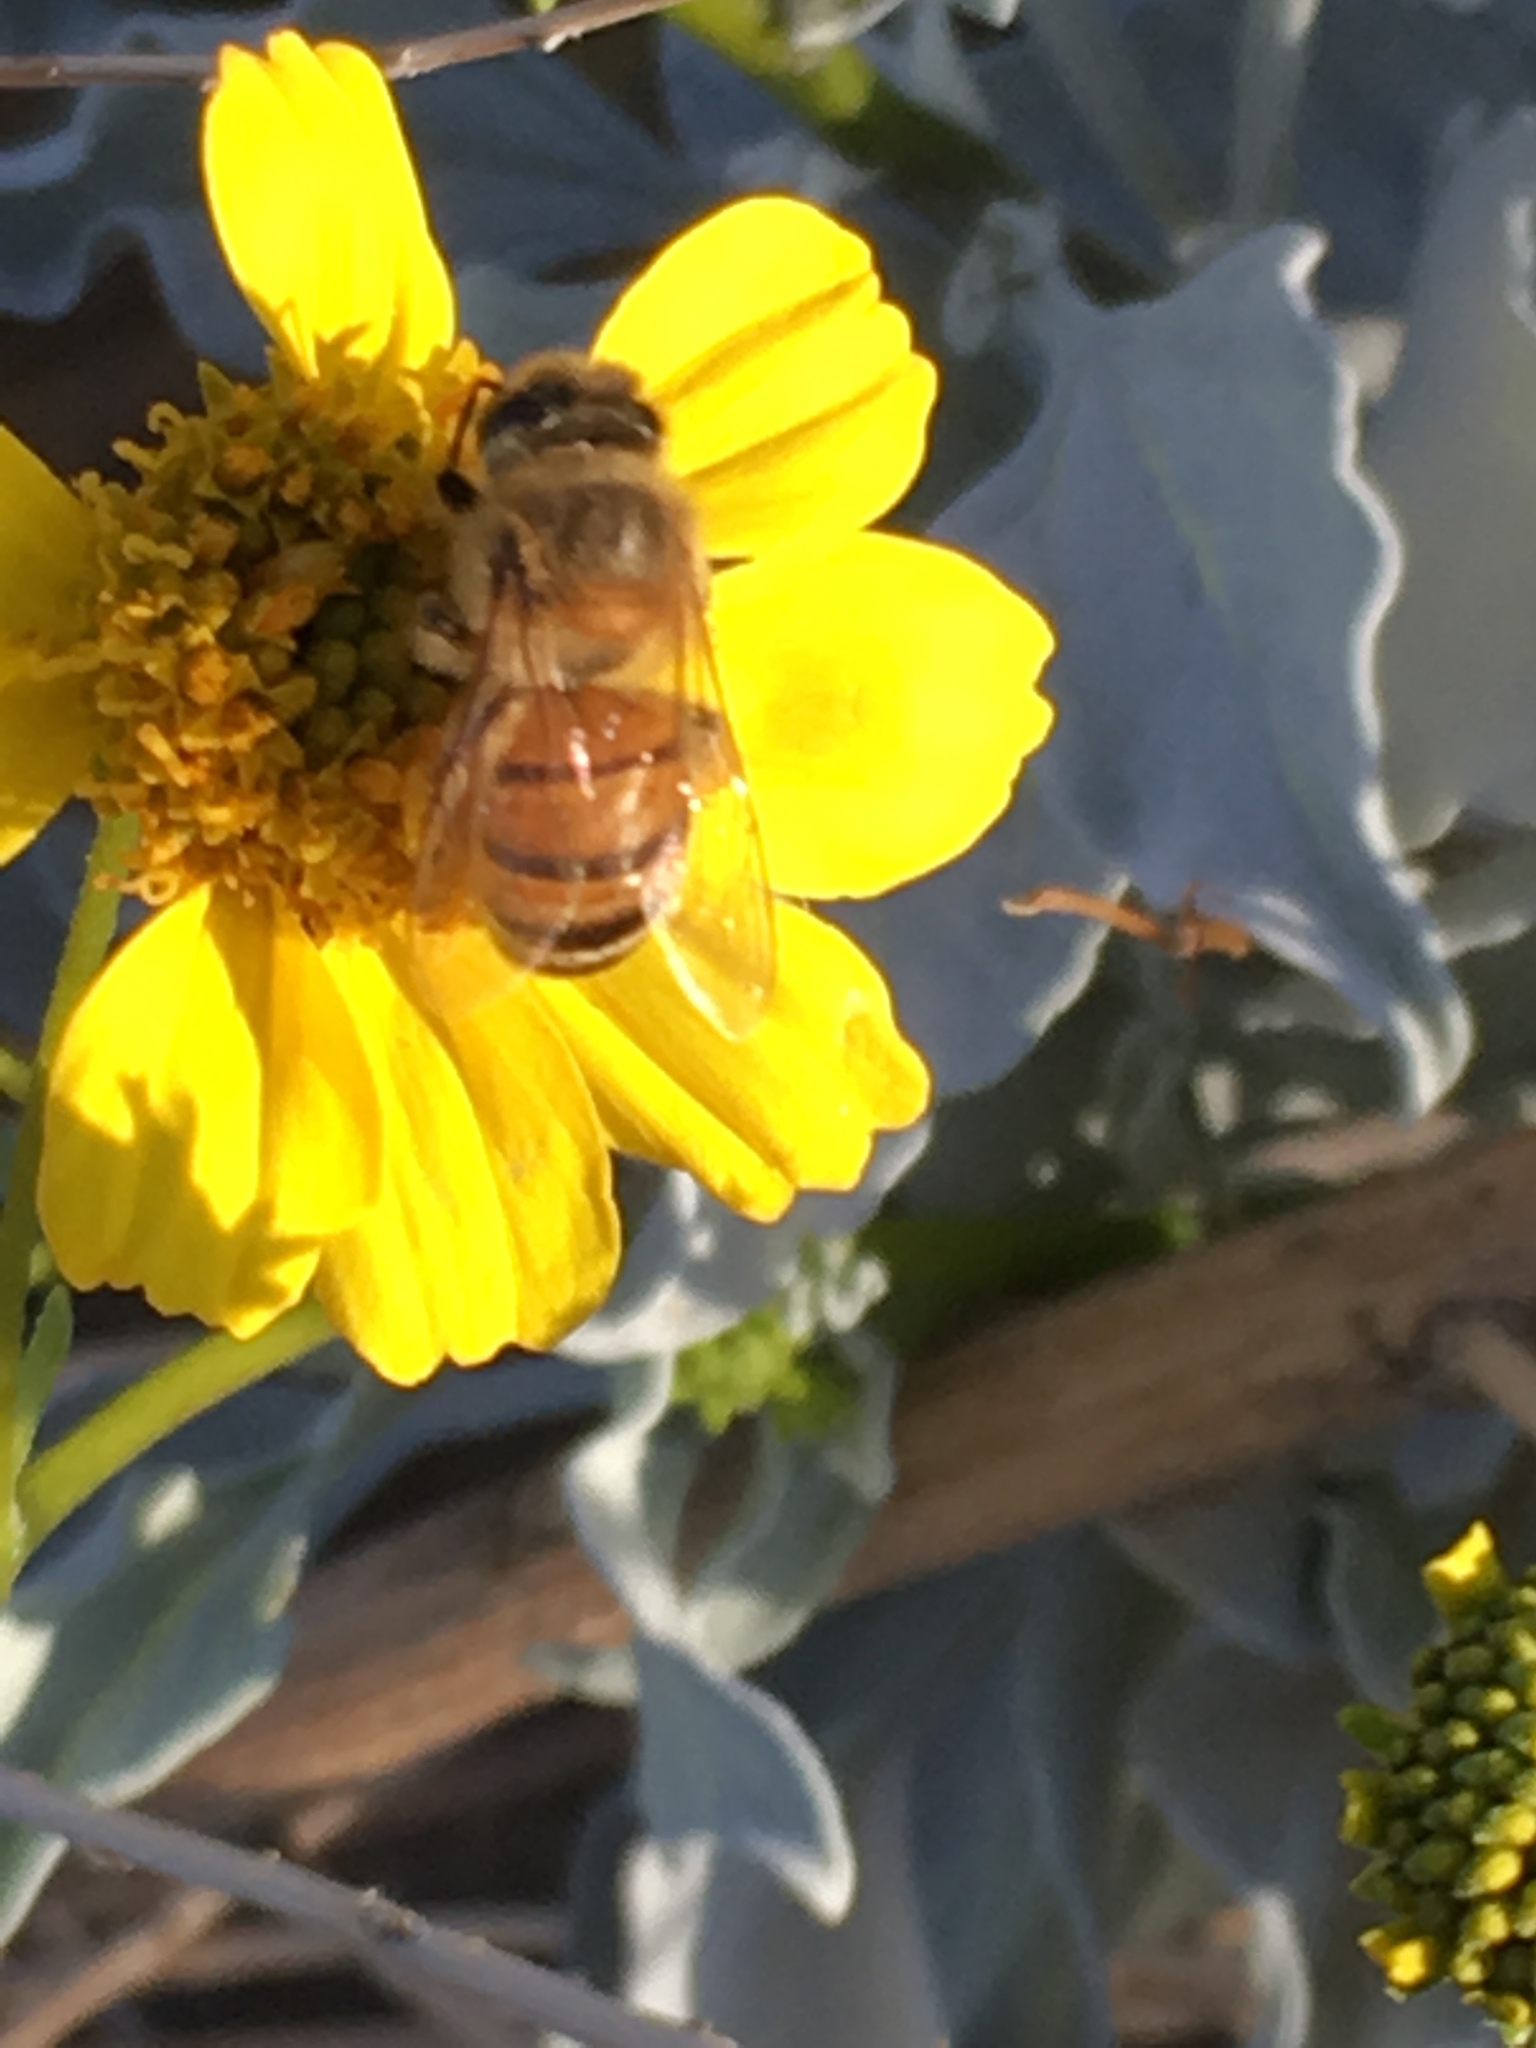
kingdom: Animalia
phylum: Arthropoda
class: Insecta
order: Hymenoptera
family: Apidae
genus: Apis
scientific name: Apis mellifera
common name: Honey bee
